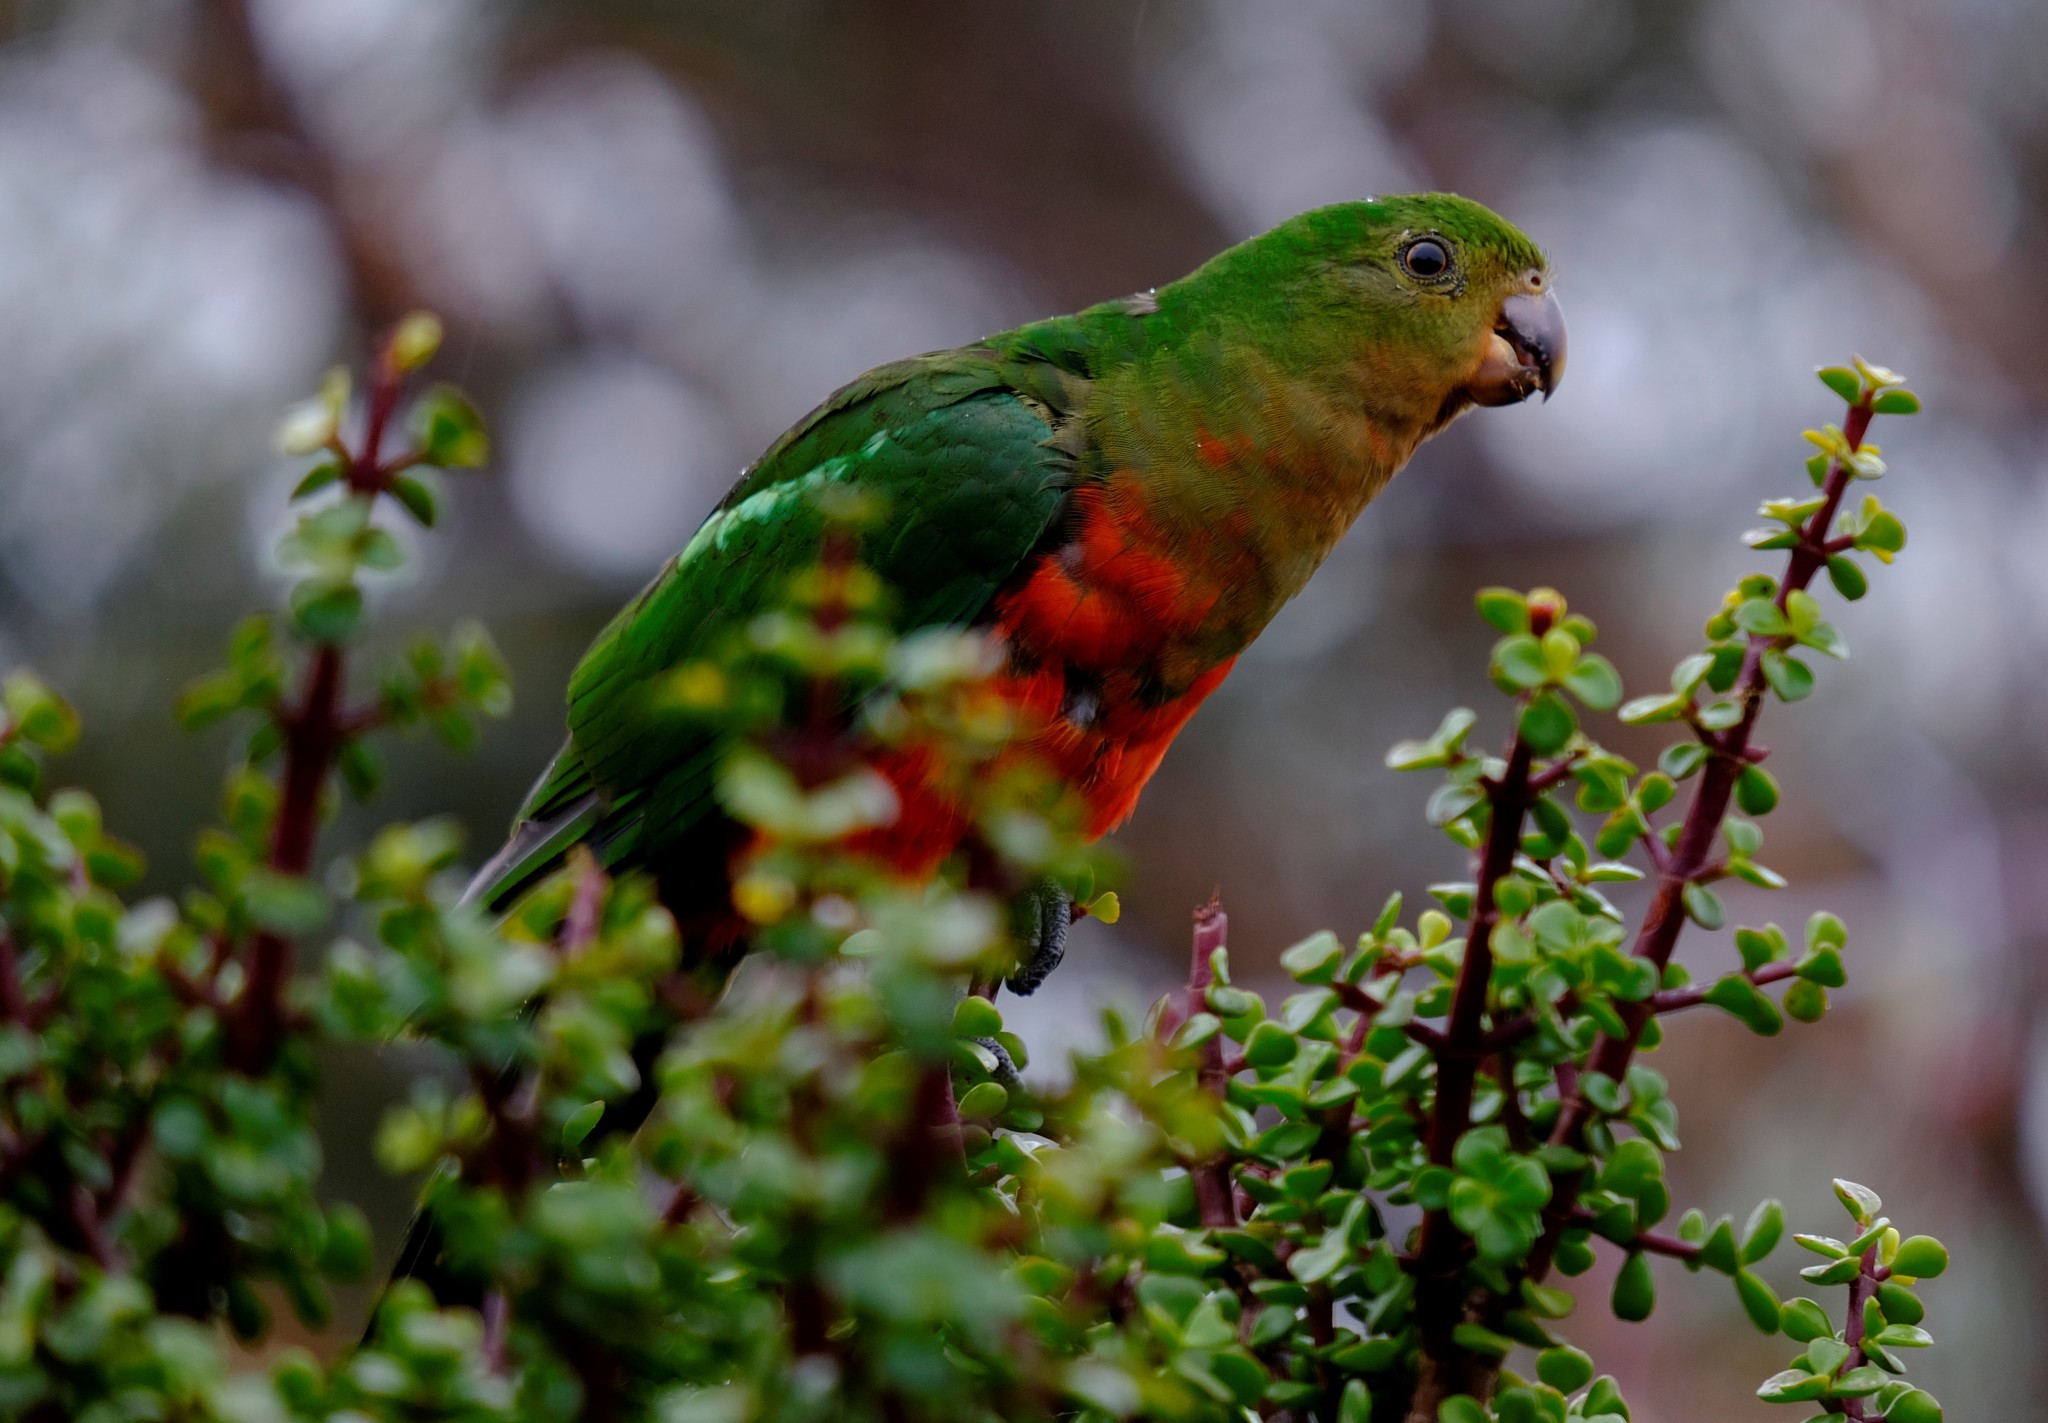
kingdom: Animalia
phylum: Chordata
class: Aves
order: Psittaciformes
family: Psittacidae
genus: Alisterus
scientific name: Alisterus scapularis
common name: Australian king parrot
